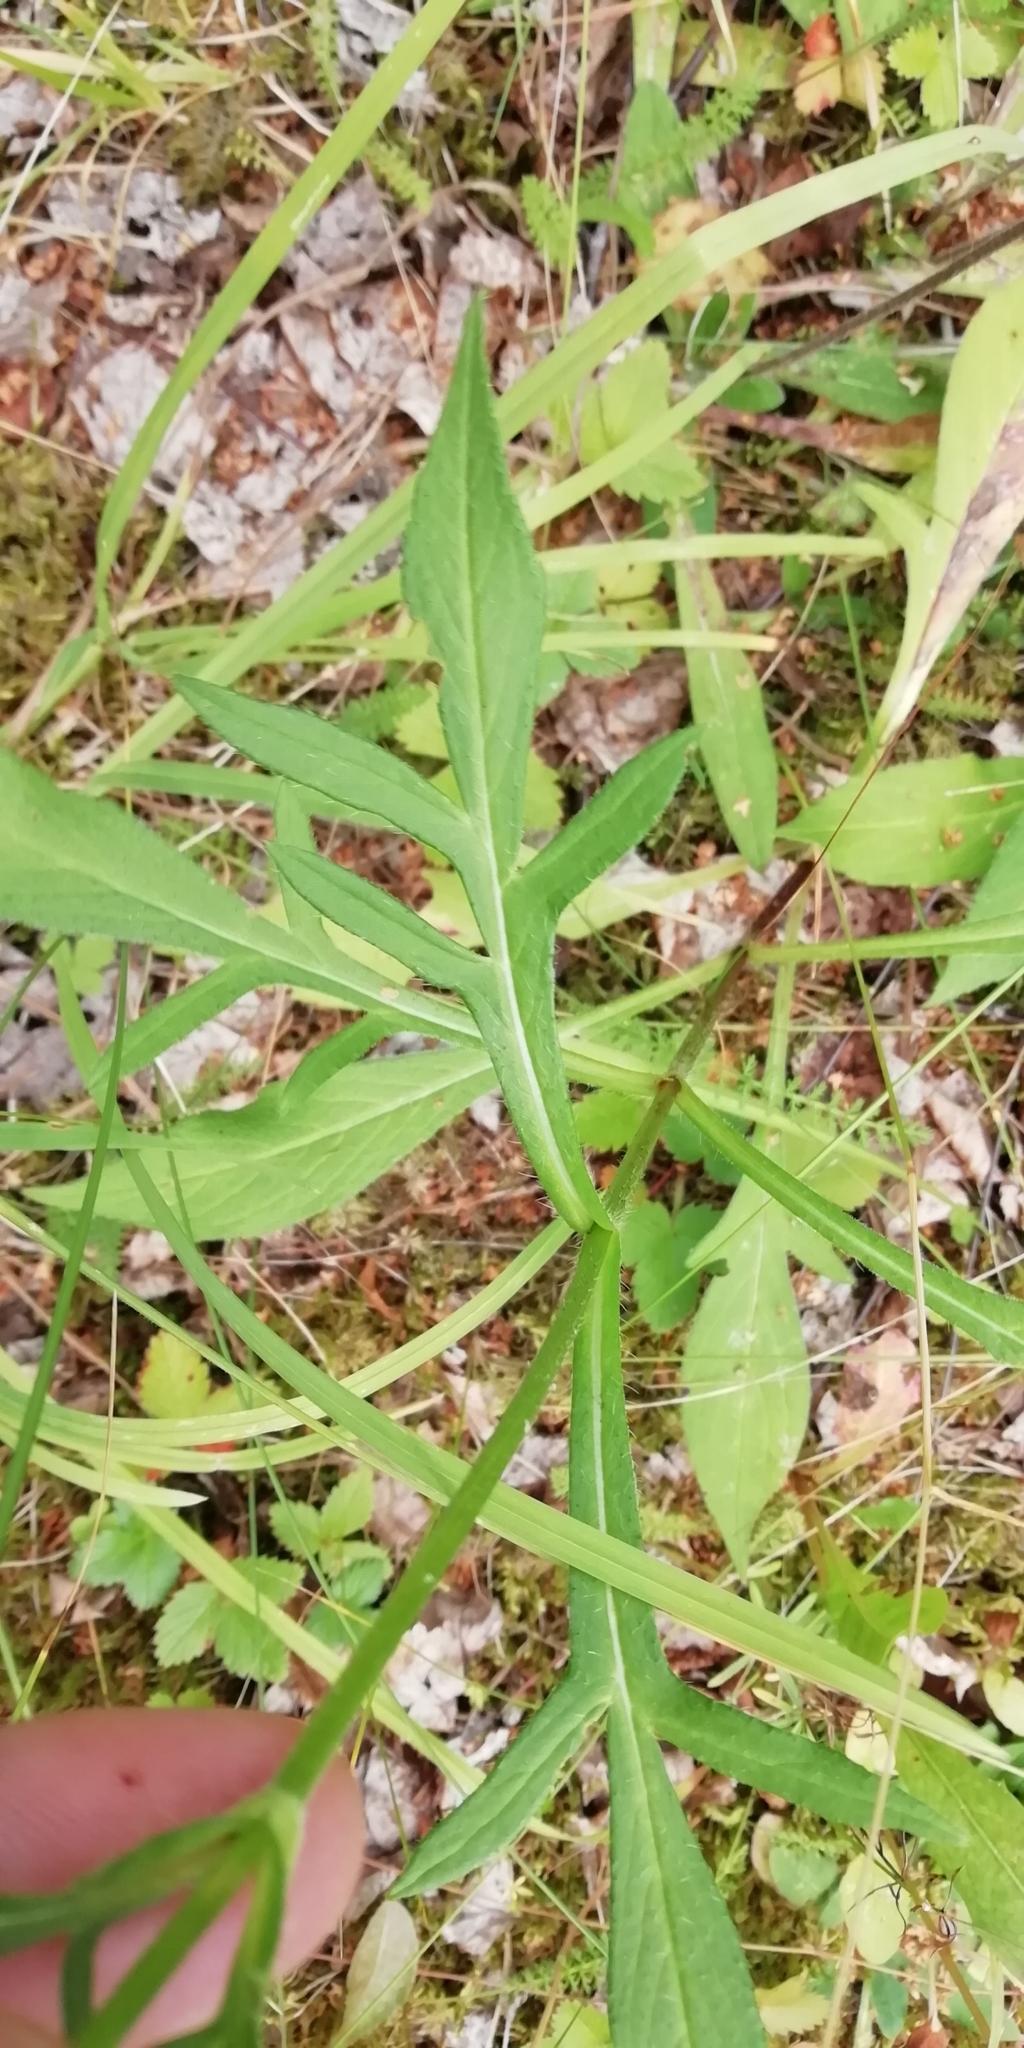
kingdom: Plantae
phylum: Tracheophyta
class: Magnoliopsida
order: Dipsacales
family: Caprifoliaceae
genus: Knautia
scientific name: Knautia arvensis
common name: Field scabiosa
